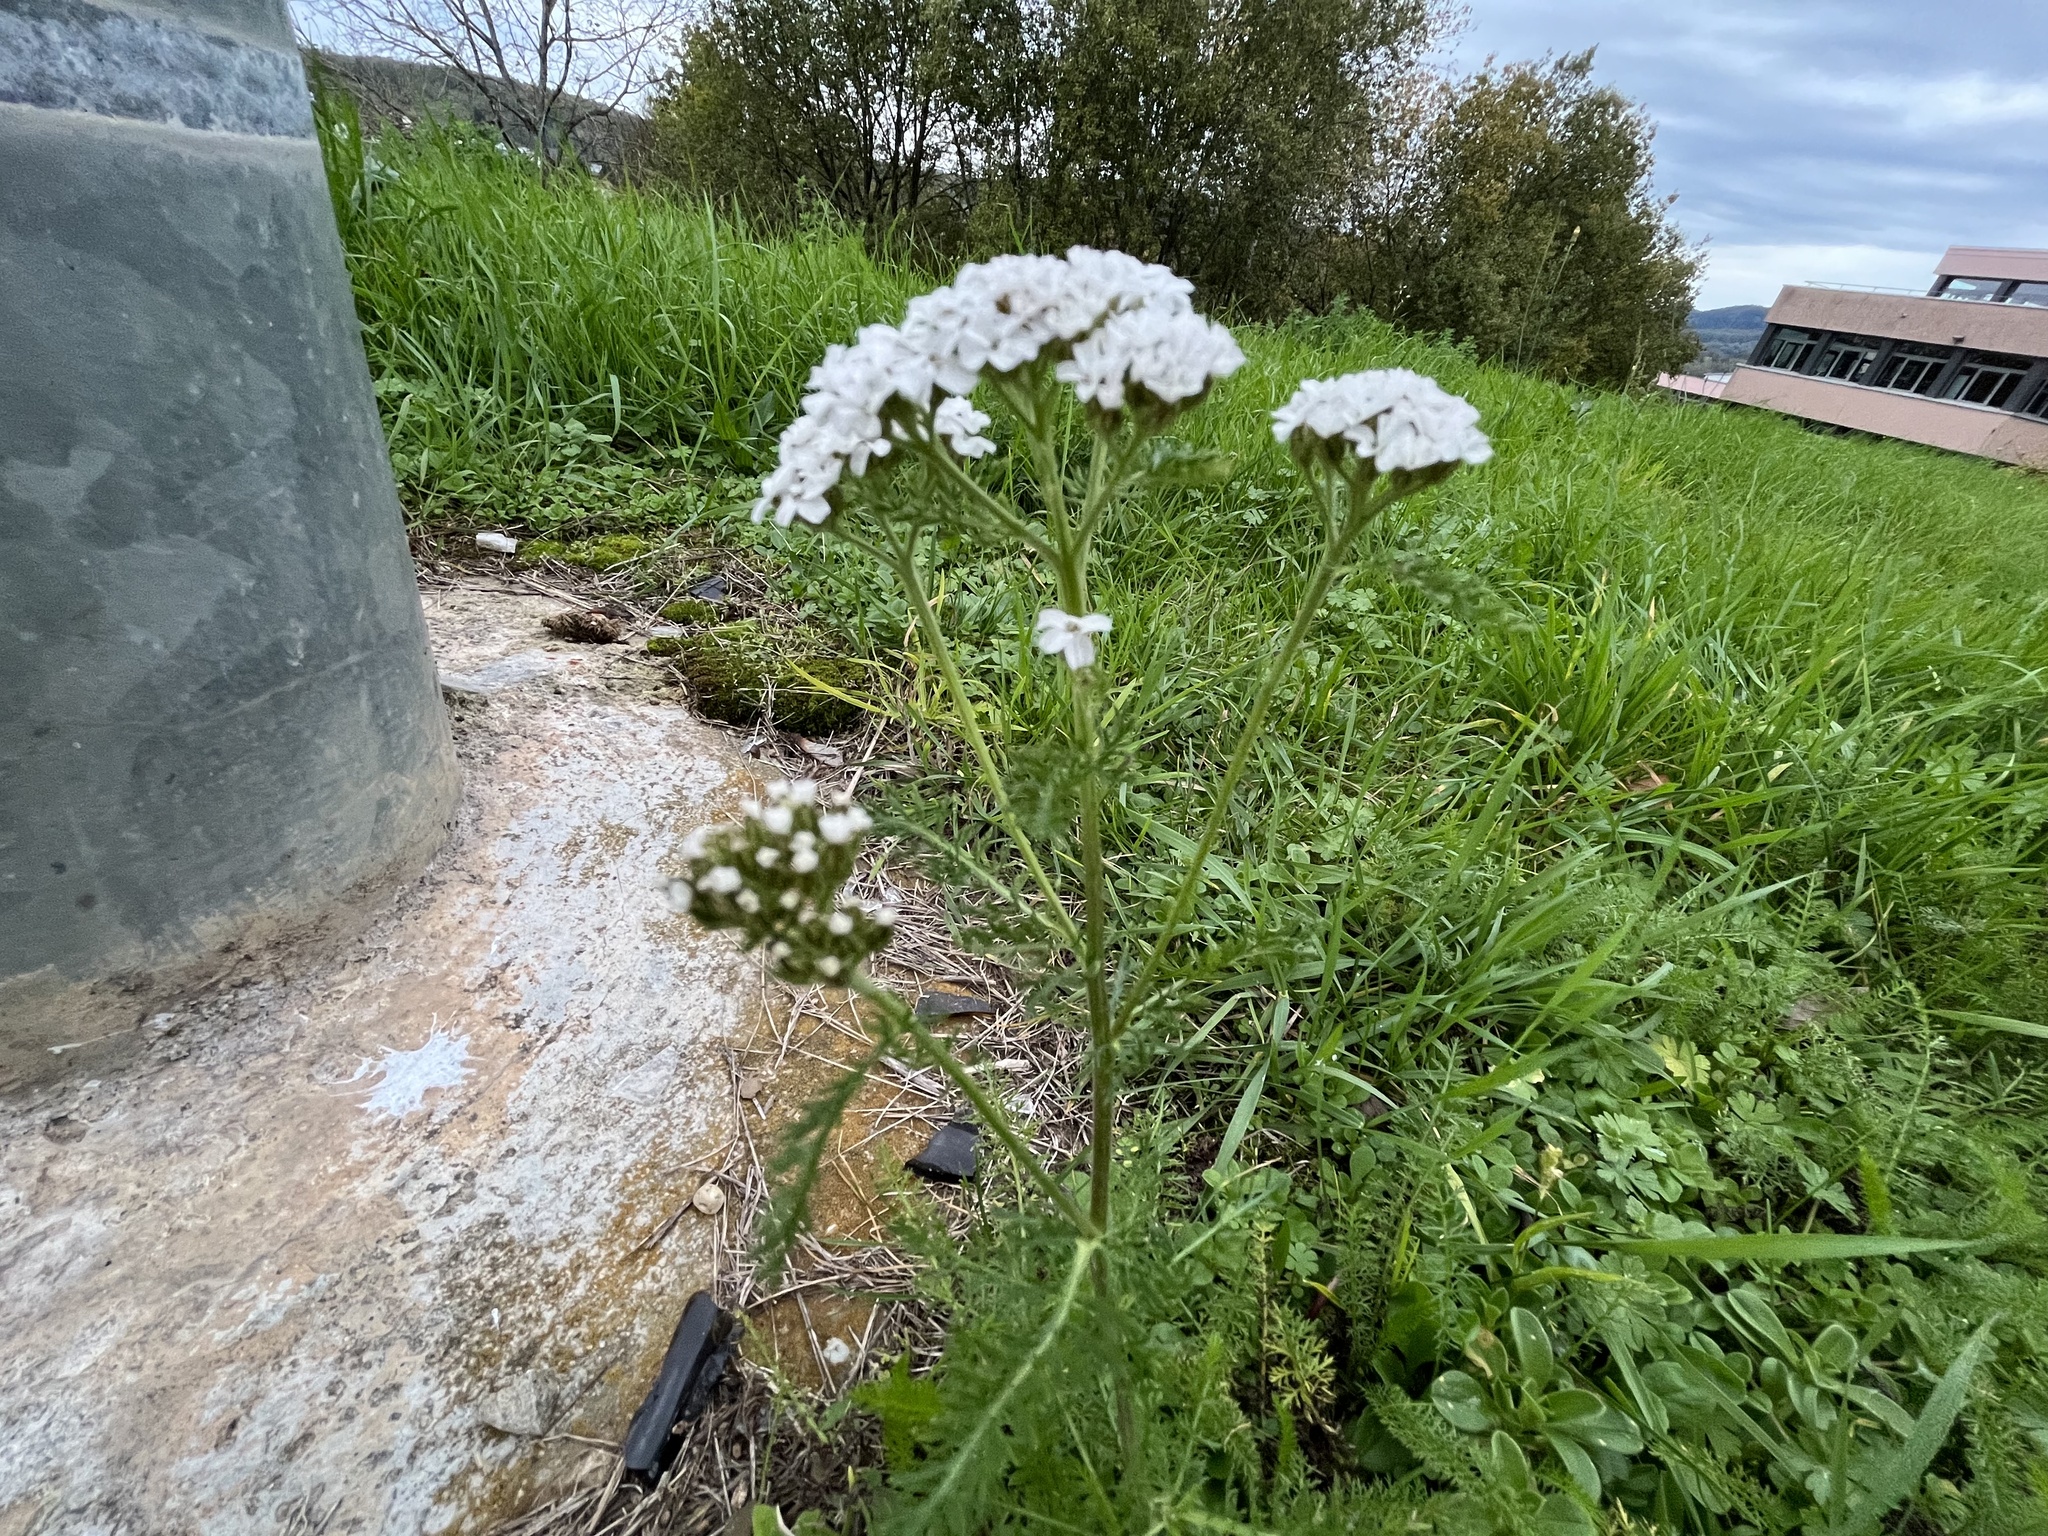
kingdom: Plantae
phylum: Tracheophyta
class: Magnoliopsida
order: Asterales
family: Asteraceae
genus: Achillea
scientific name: Achillea millefolium
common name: Yarrow
